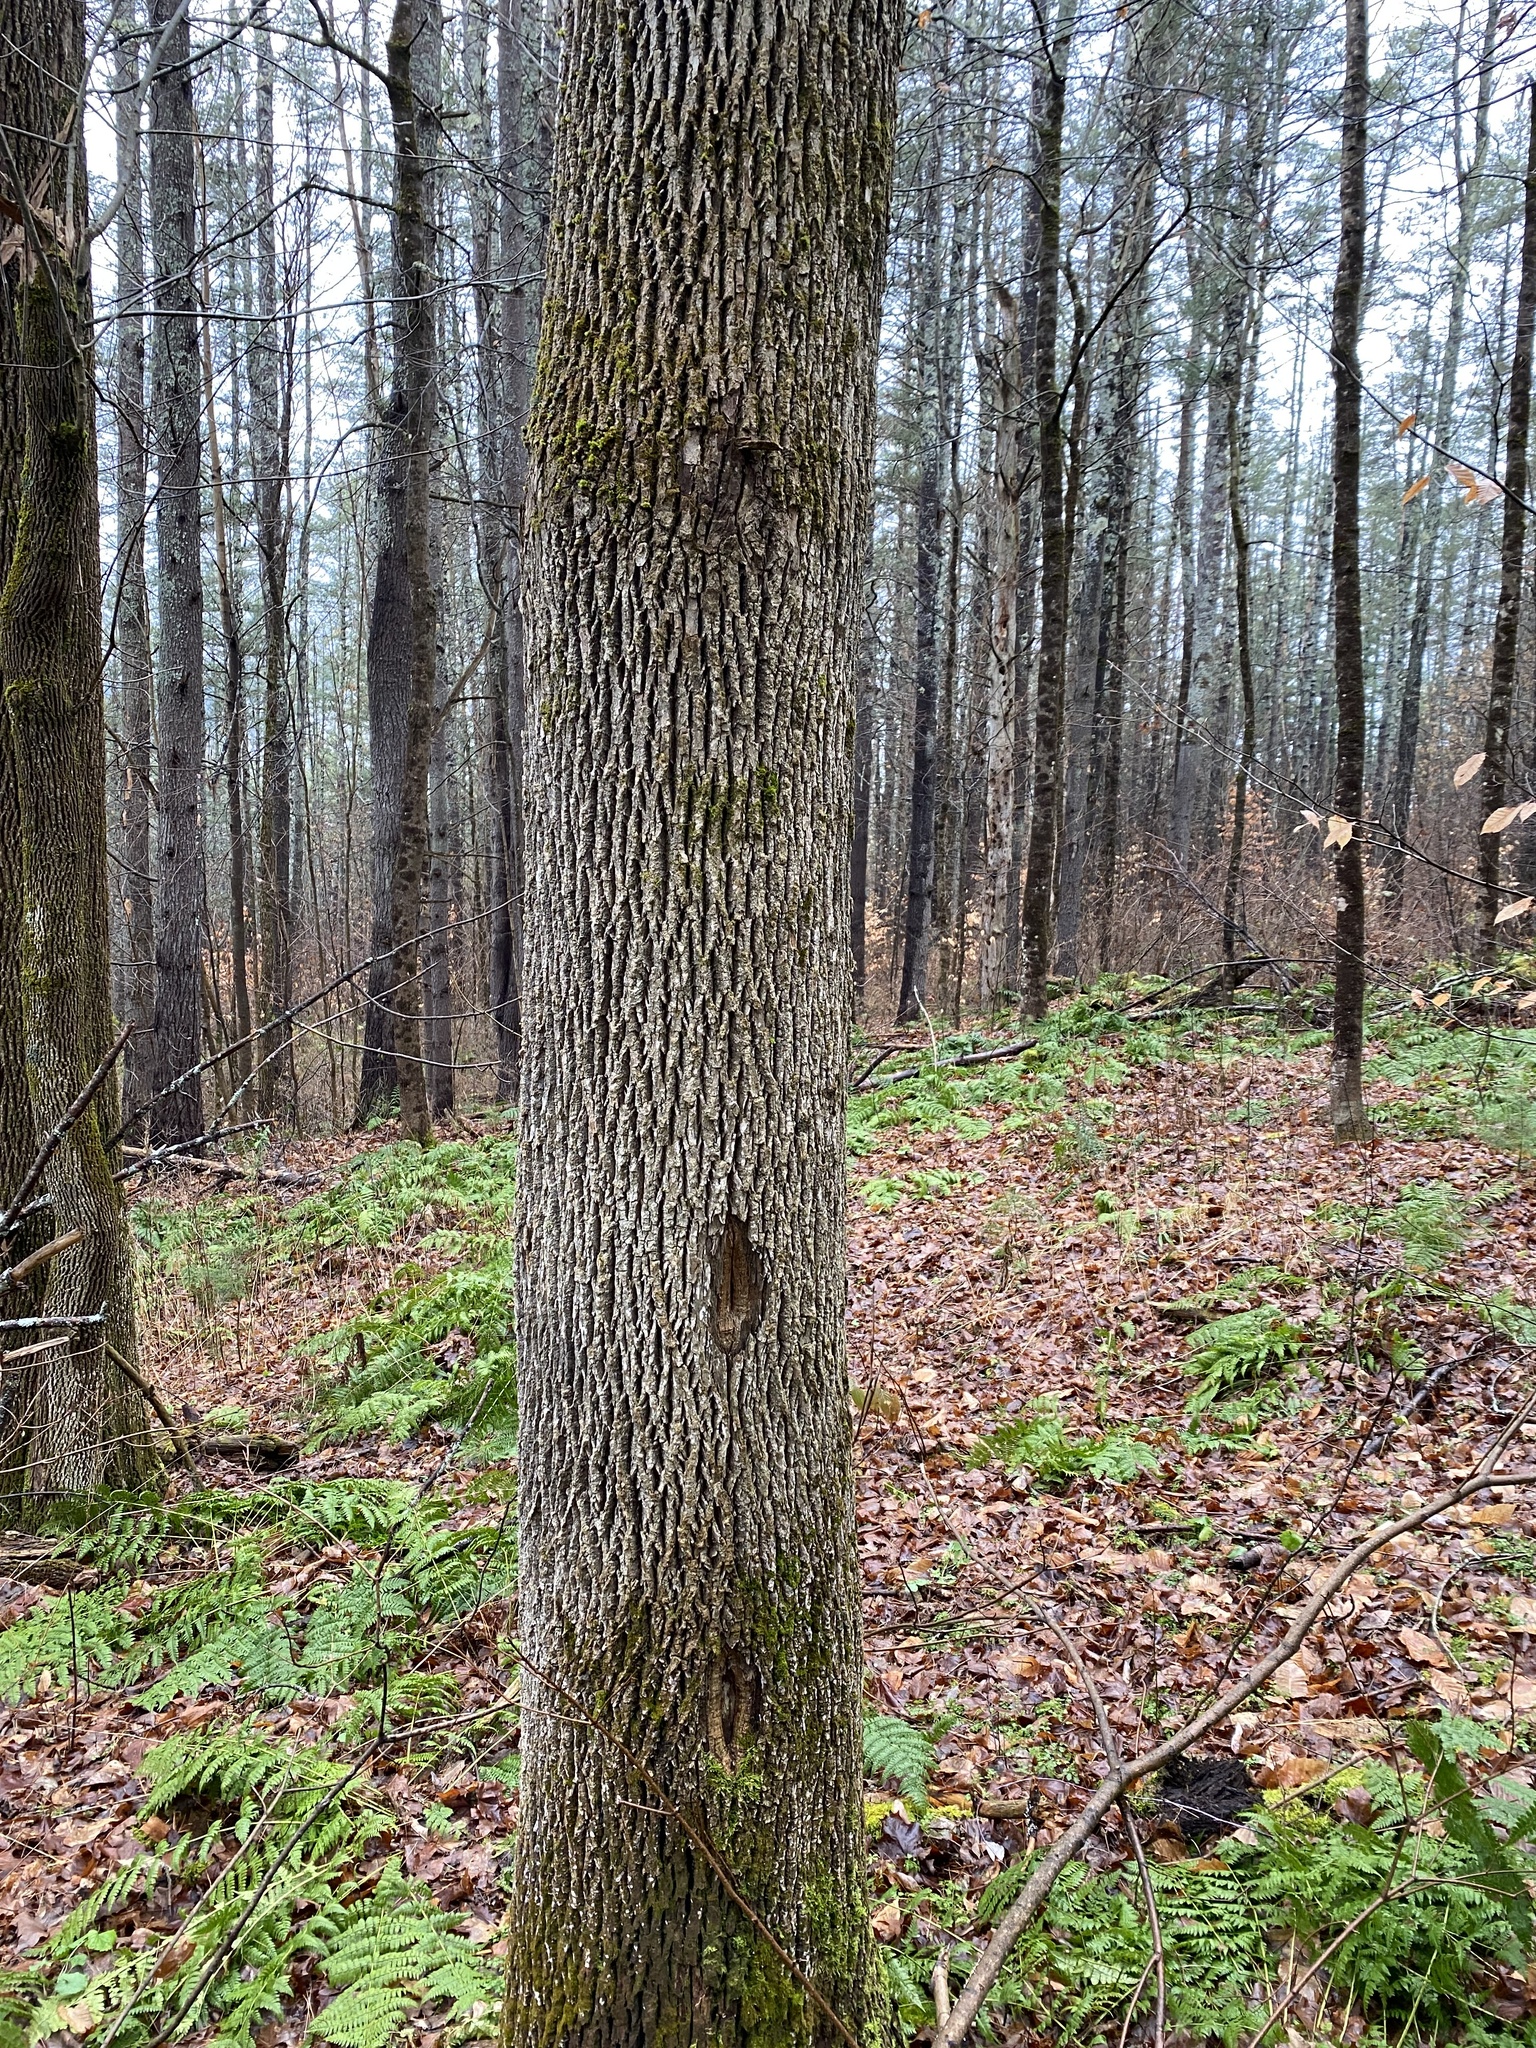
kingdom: Plantae
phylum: Tracheophyta
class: Magnoliopsida
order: Lamiales
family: Oleaceae
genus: Fraxinus
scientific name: Fraxinus americana
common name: White ash
